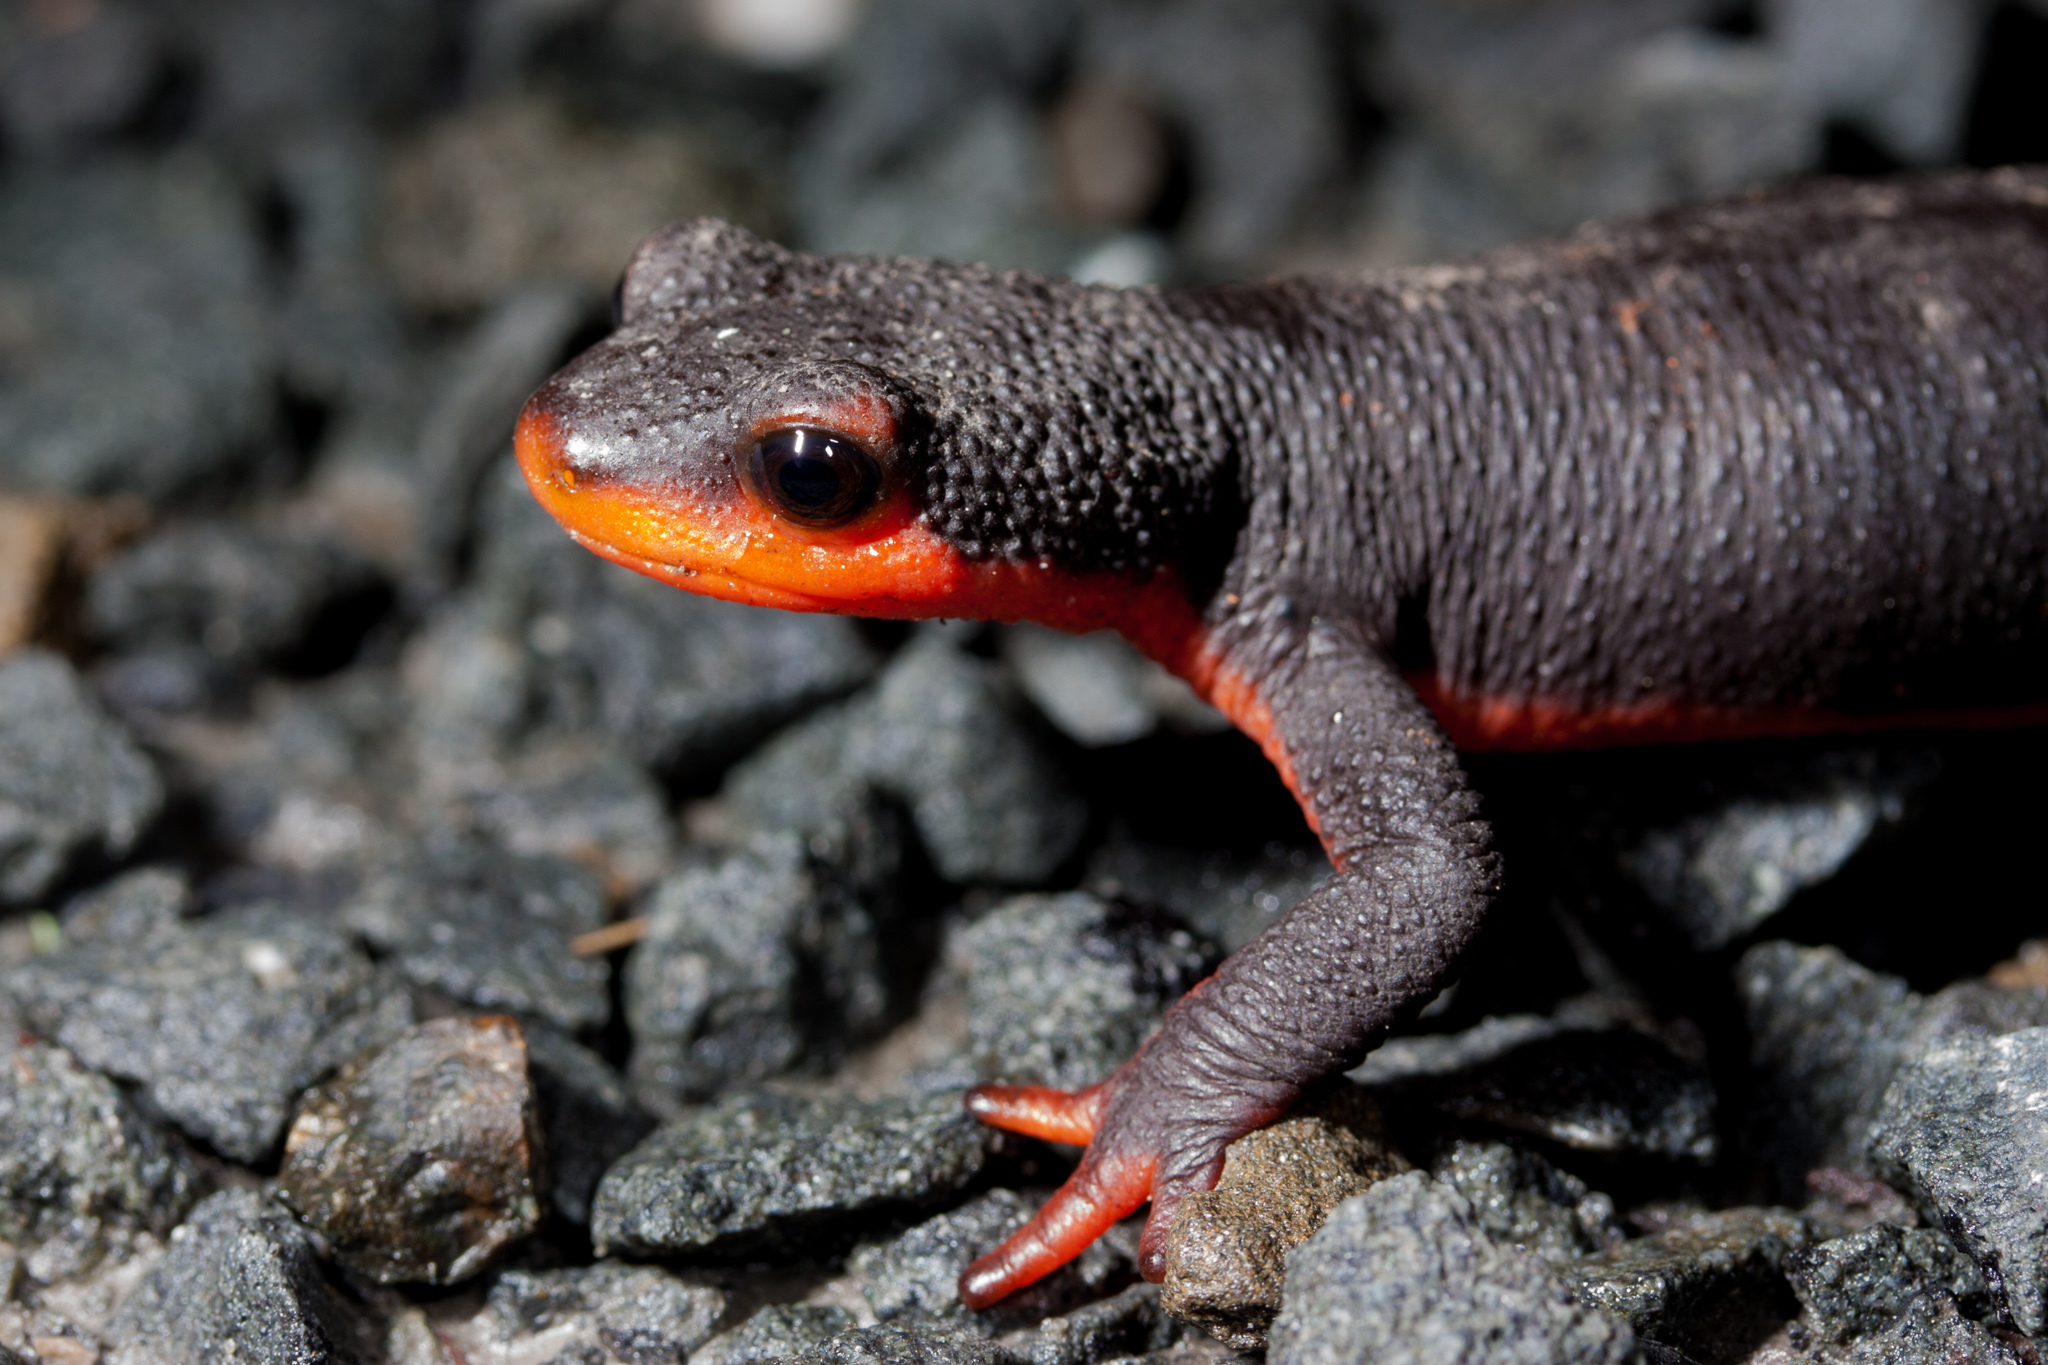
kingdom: Animalia
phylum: Chordata
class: Amphibia
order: Caudata
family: Salamandridae
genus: Taricha
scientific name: Taricha rivularis
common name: Red-bellied newt
